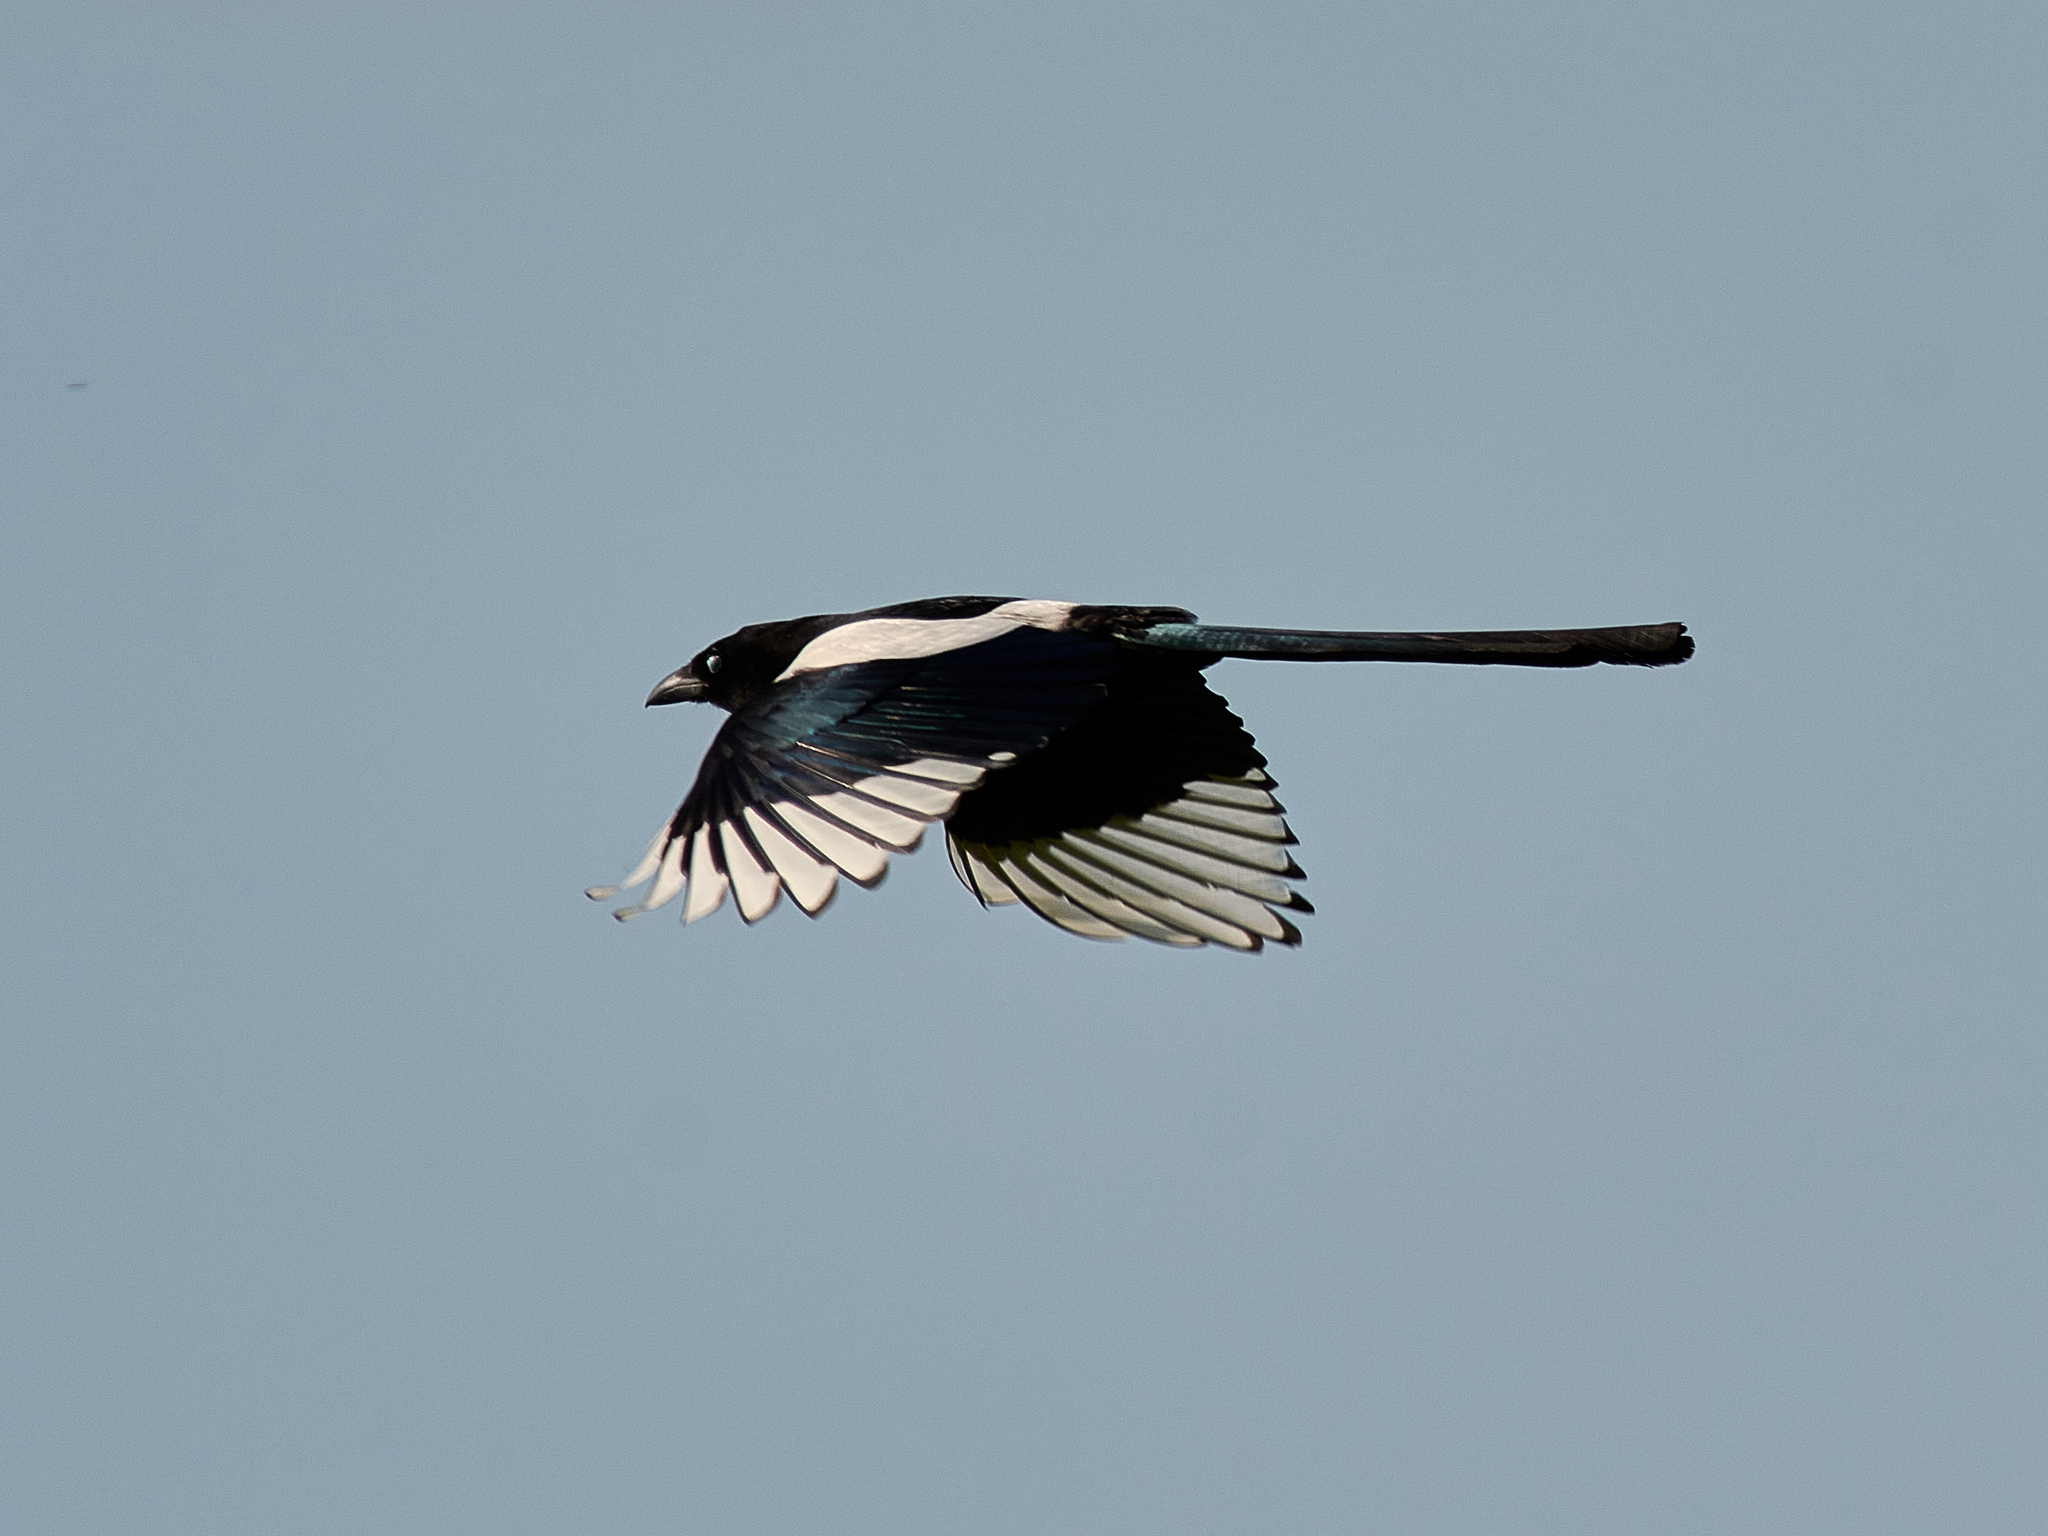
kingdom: Animalia
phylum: Chordata
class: Aves
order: Passeriformes
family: Corvidae
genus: Pica
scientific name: Pica pica
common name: Eurasian magpie
